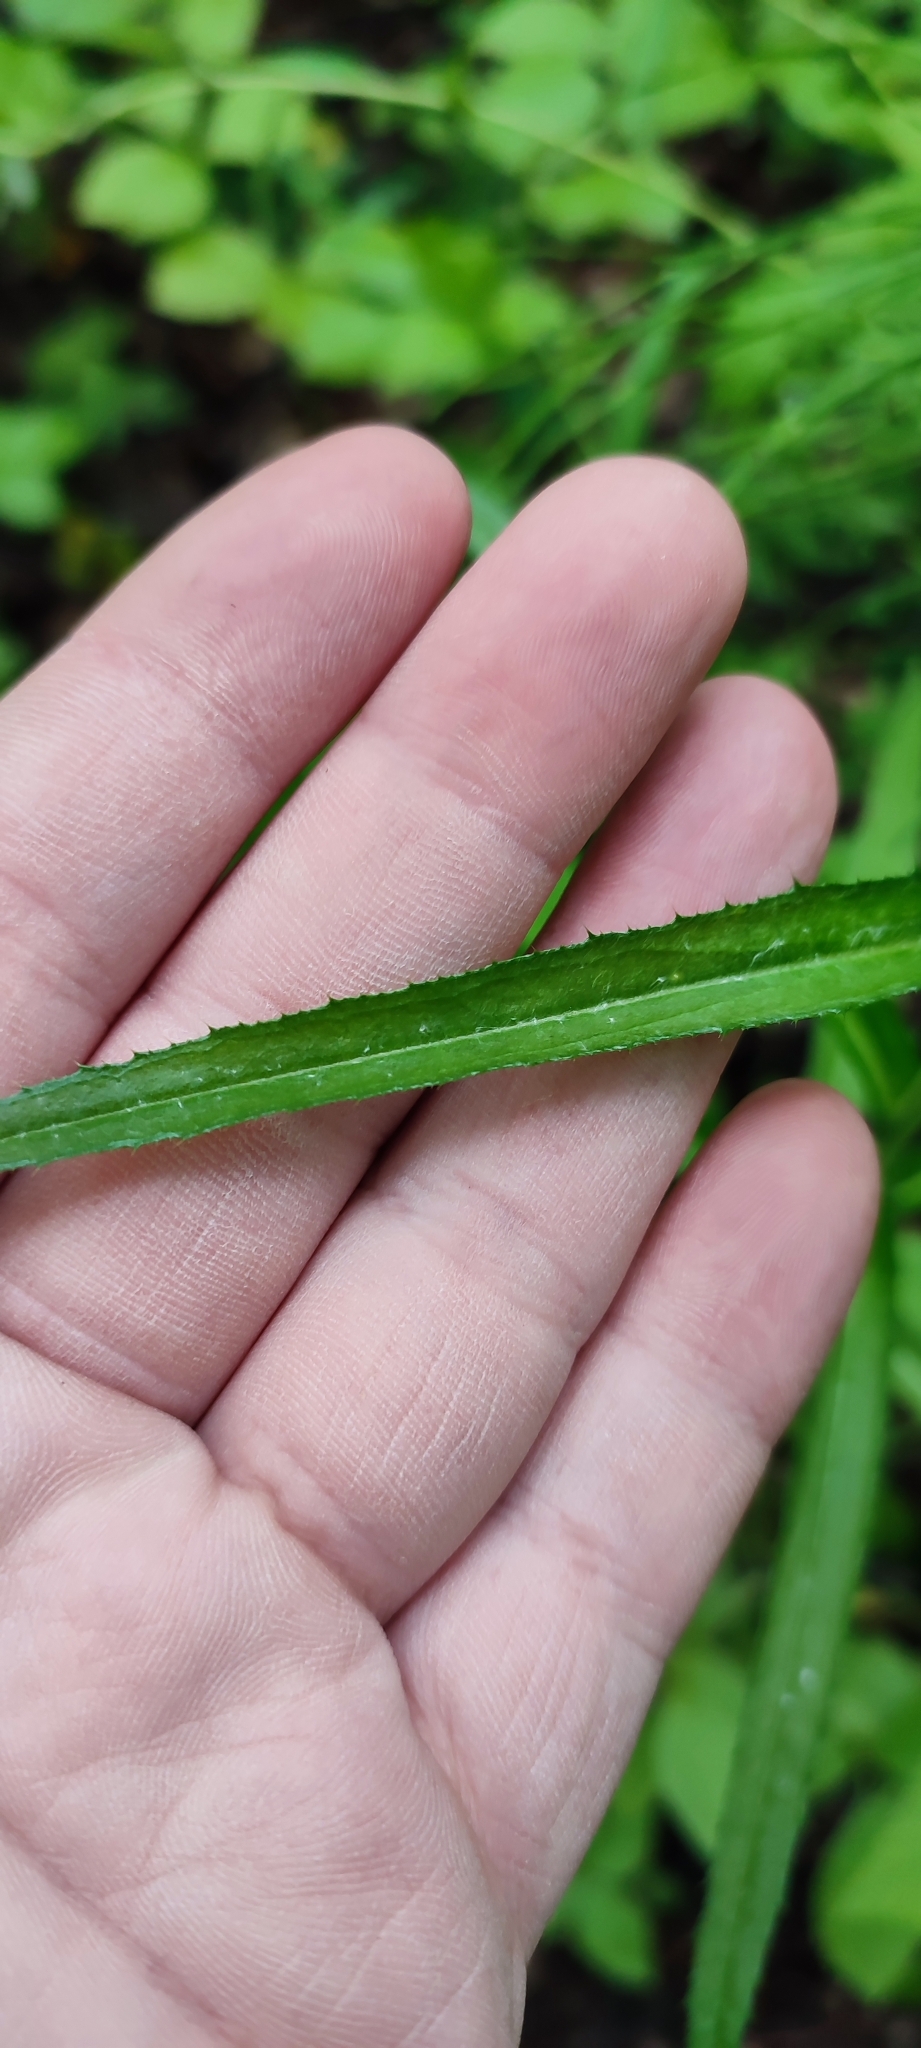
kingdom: Plantae
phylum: Tracheophyta
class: Magnoliopsida
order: Asterales
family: Asteraceae
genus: Carlina
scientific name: Carlina biebersteinii
